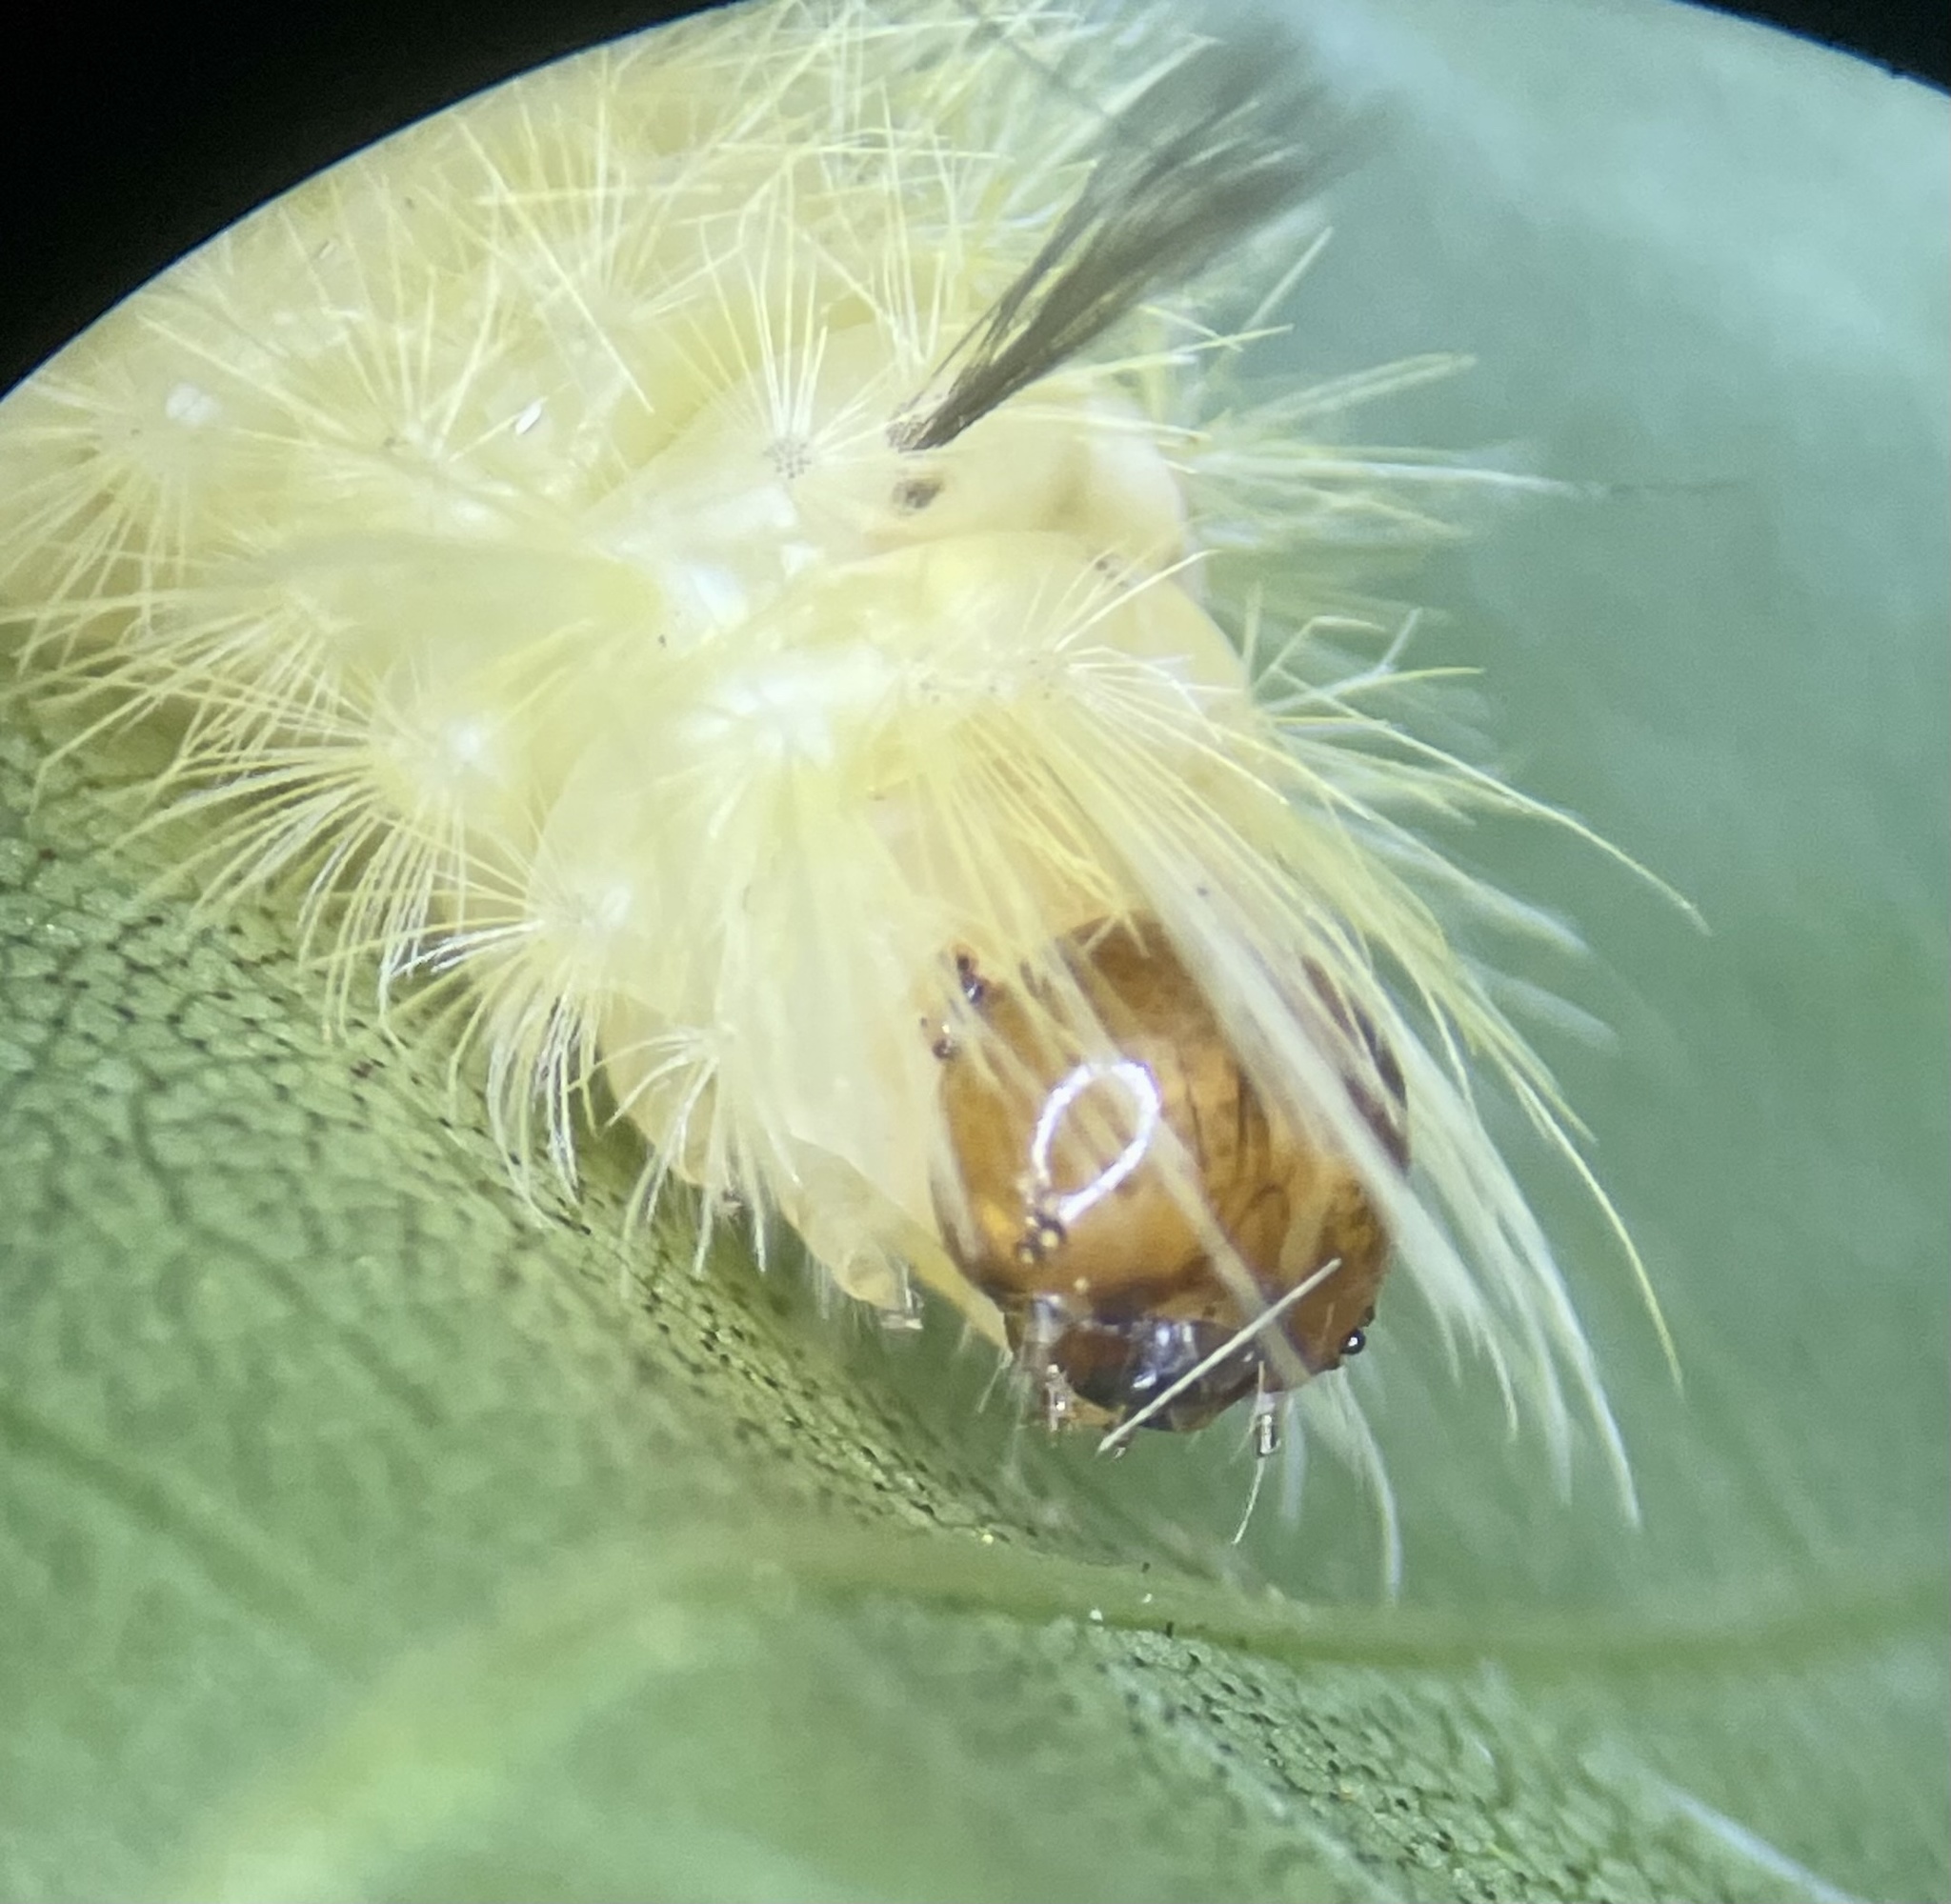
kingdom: Animalia
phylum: Arthropoda
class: Insecta
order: Lepidoptera
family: Erebidae
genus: Halysidota
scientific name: Halysidota tessellaris
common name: Banded tussock moth
